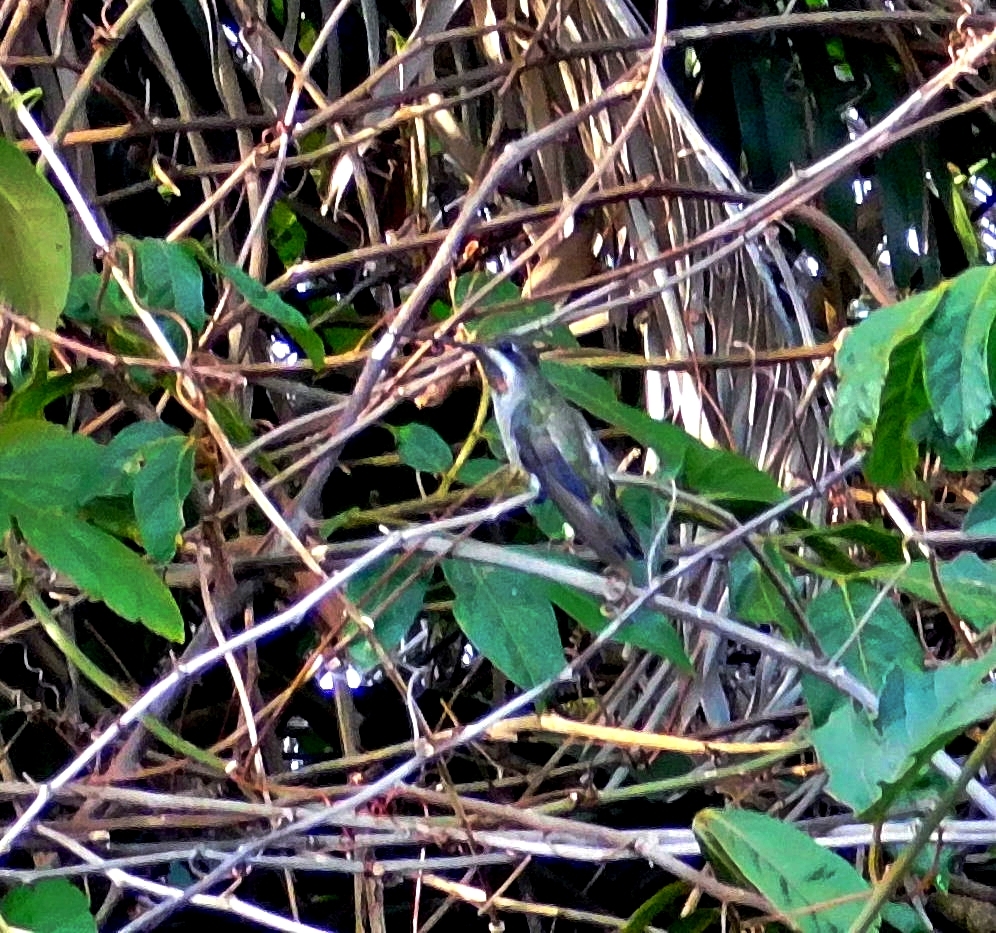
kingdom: Animalia
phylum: Chordata
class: Aves
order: Apodiformes
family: Trochilidae
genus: Heliomaster
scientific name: Heliomaster constantii
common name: Plain-capped starthroat
